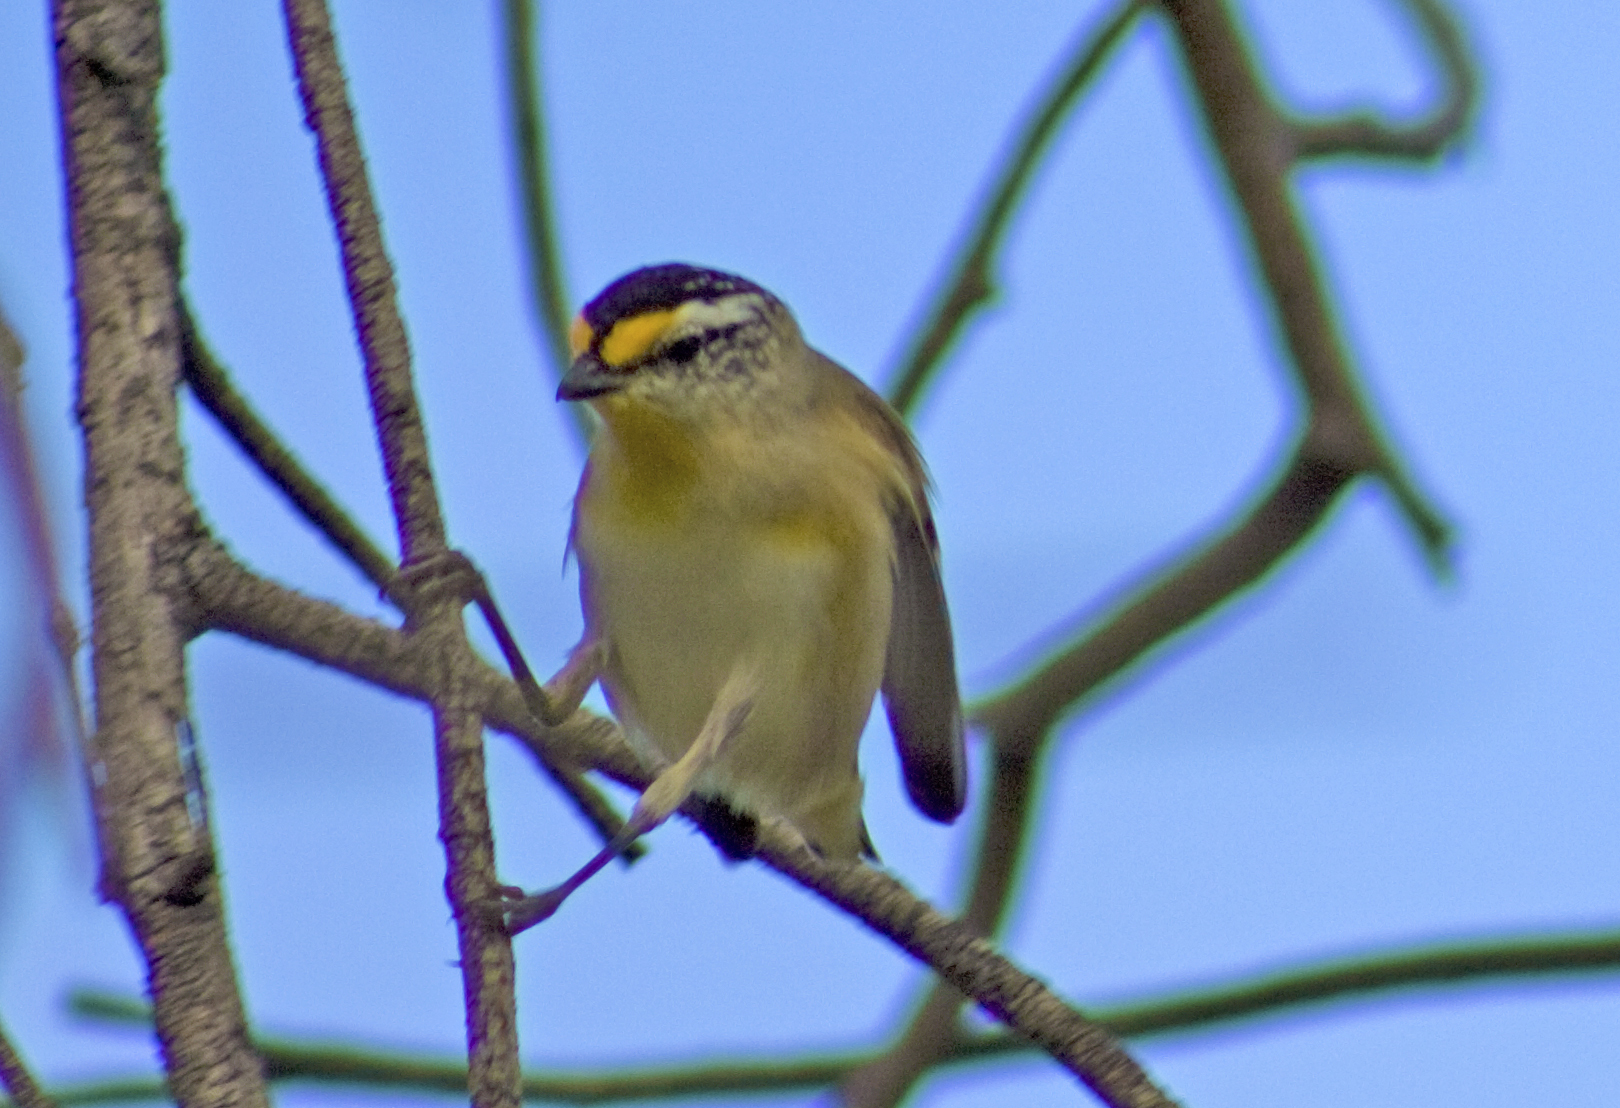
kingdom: Animalia
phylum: Chordata
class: Aves
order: Passeriformes
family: Pardalotidae
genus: Pardalotus
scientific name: Pardalotus striatus
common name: Striated pardalote
